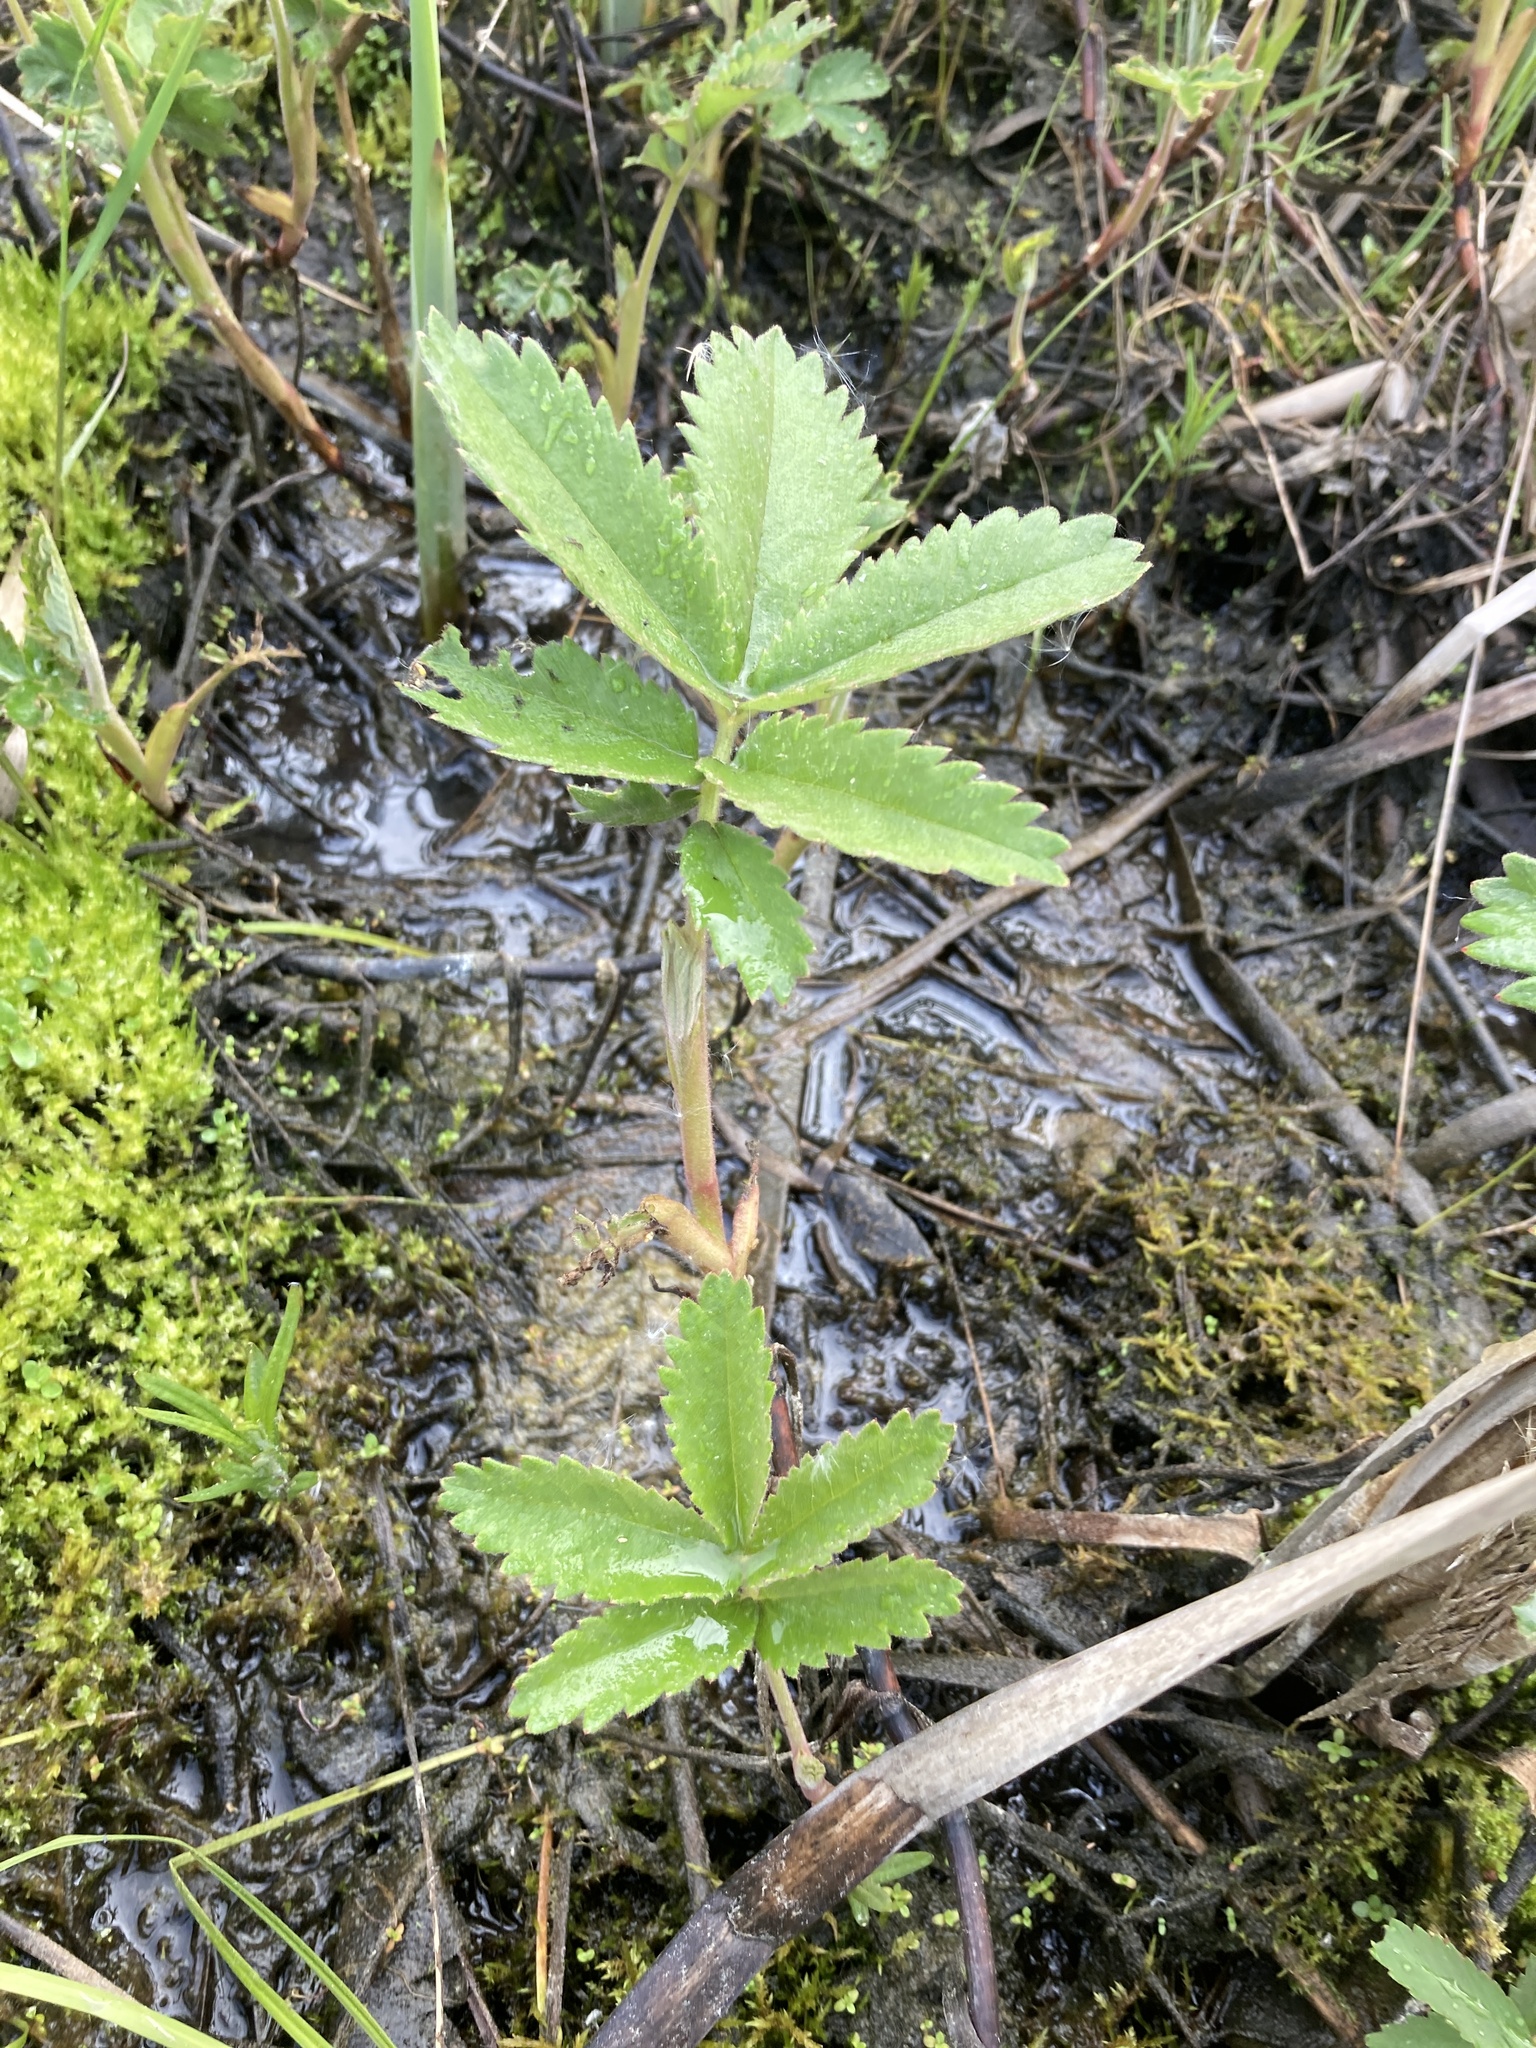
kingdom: Plantae
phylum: Tracheophyta
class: Magnoliopsida
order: Rosales
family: Rosaceae
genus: Comarum
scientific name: Comarum palustre
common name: Marsh cinquefoil
